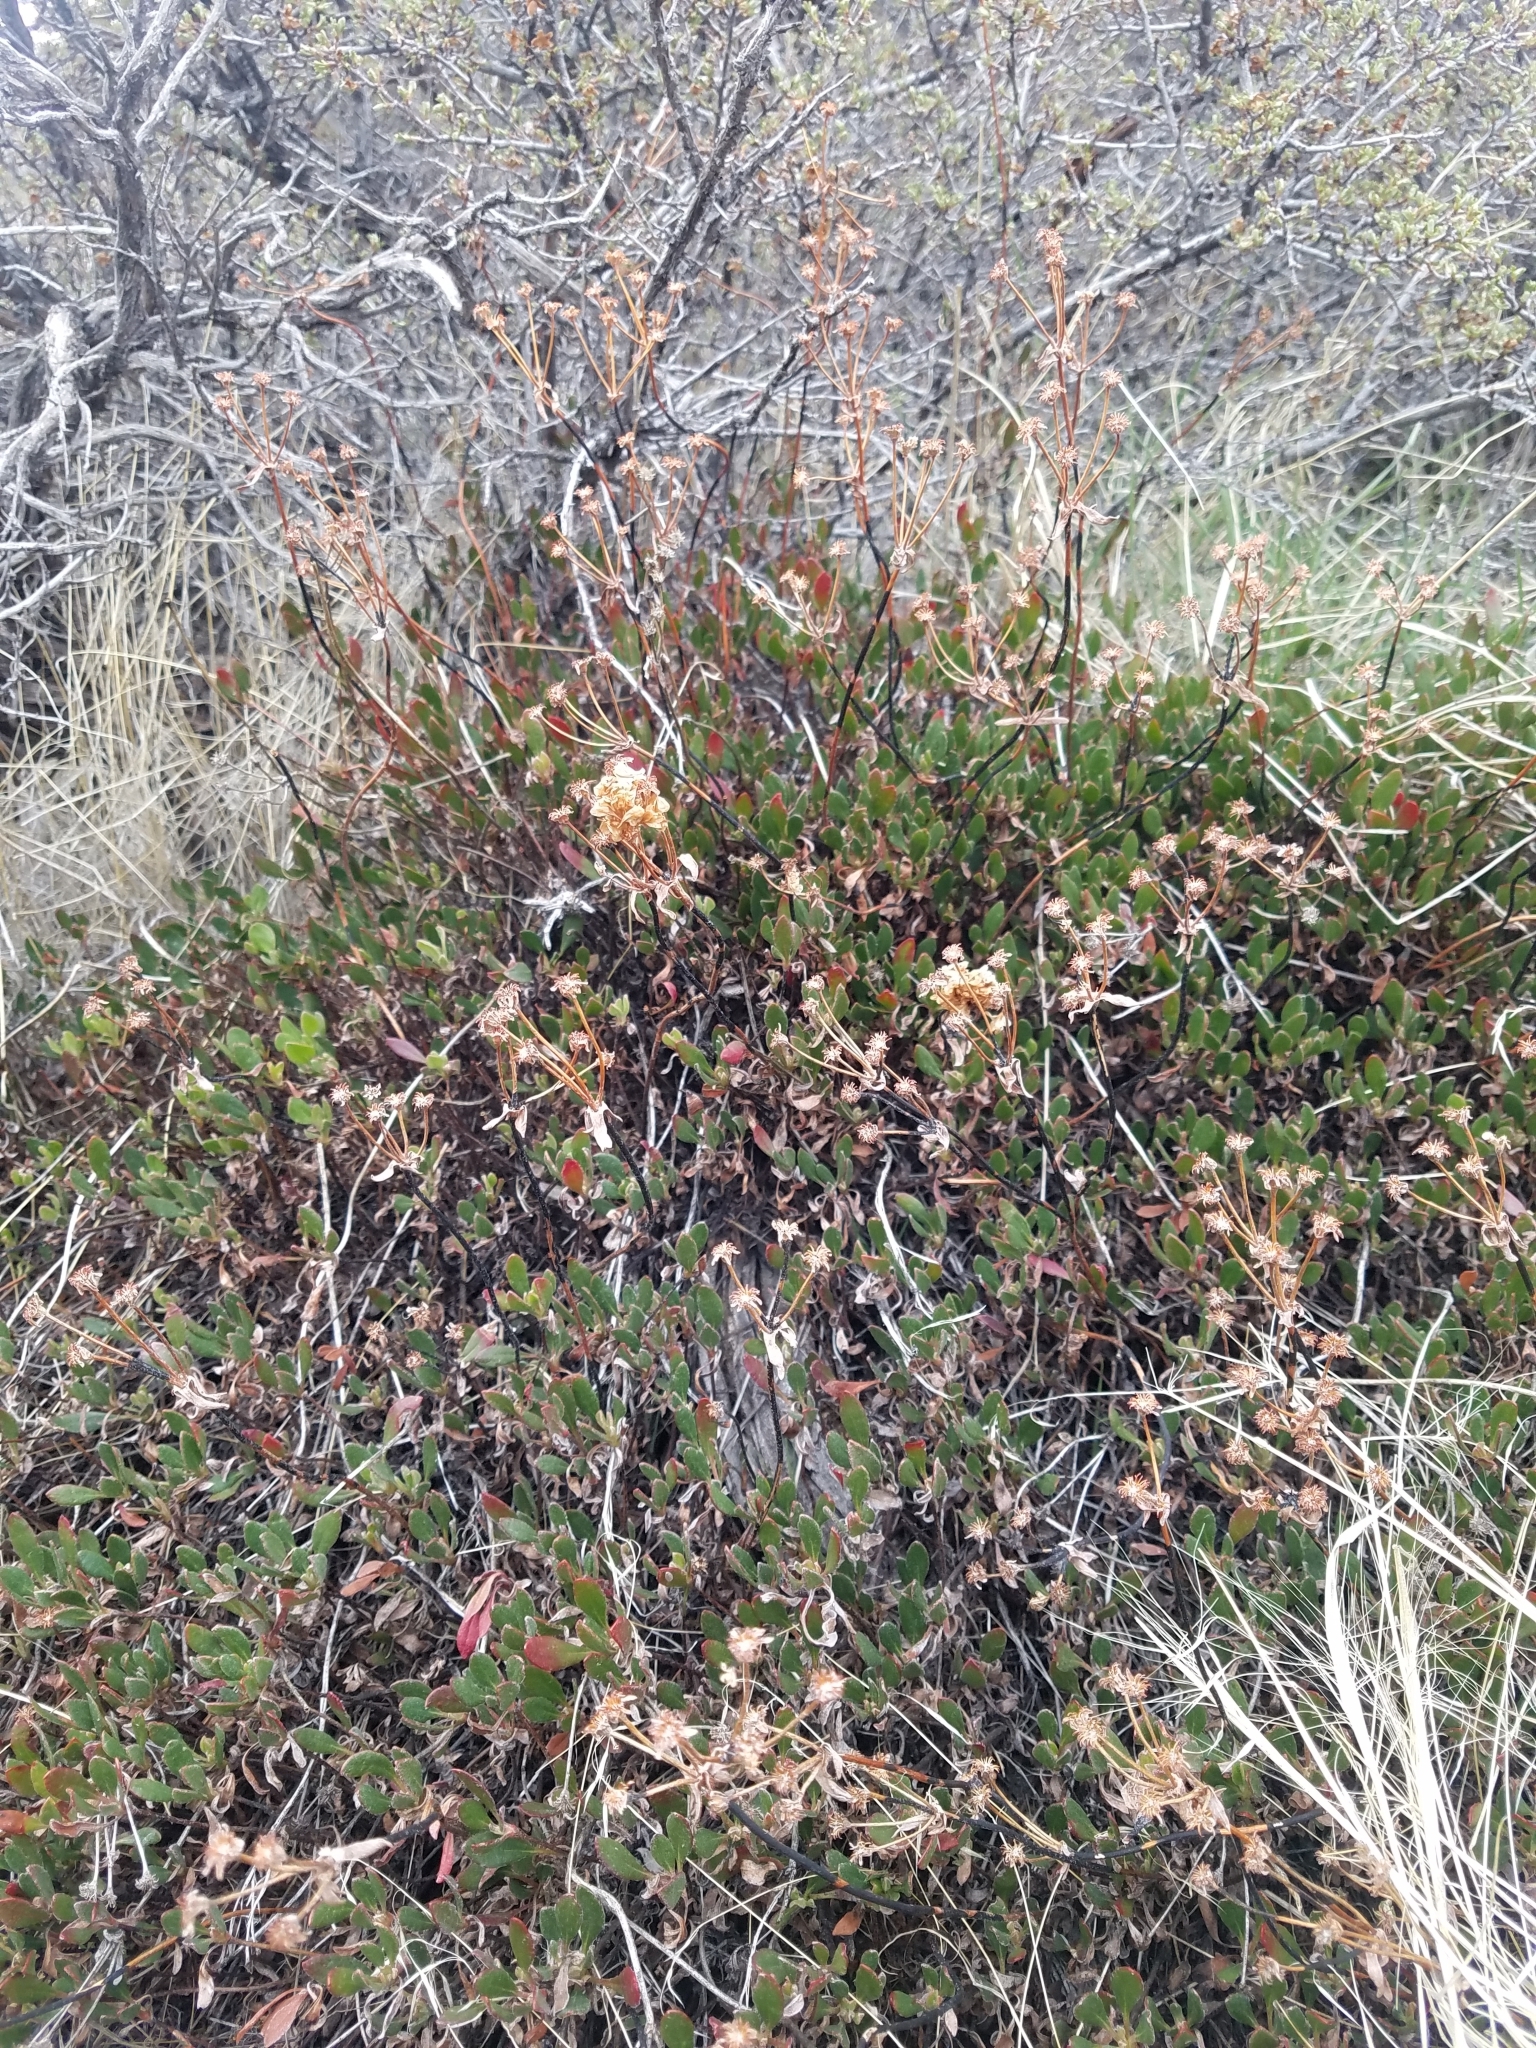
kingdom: Plantae
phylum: Tracheophyta
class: Magnoliopsida
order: Caryophyllales
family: Polygonaceae
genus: Eriogonum
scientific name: Eriogonum umbellatum
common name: Sulfur-buckwheat
